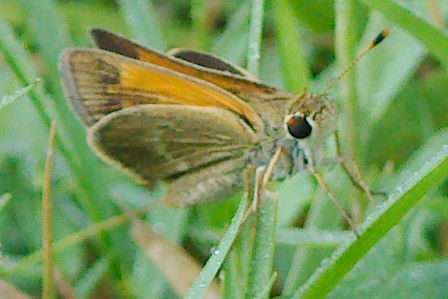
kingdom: Animalia
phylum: Arthropoda
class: Insecta
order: Lepidoptera
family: Hesperiidae
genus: Polites
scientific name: Polites baracoa
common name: Baracoa skipper
